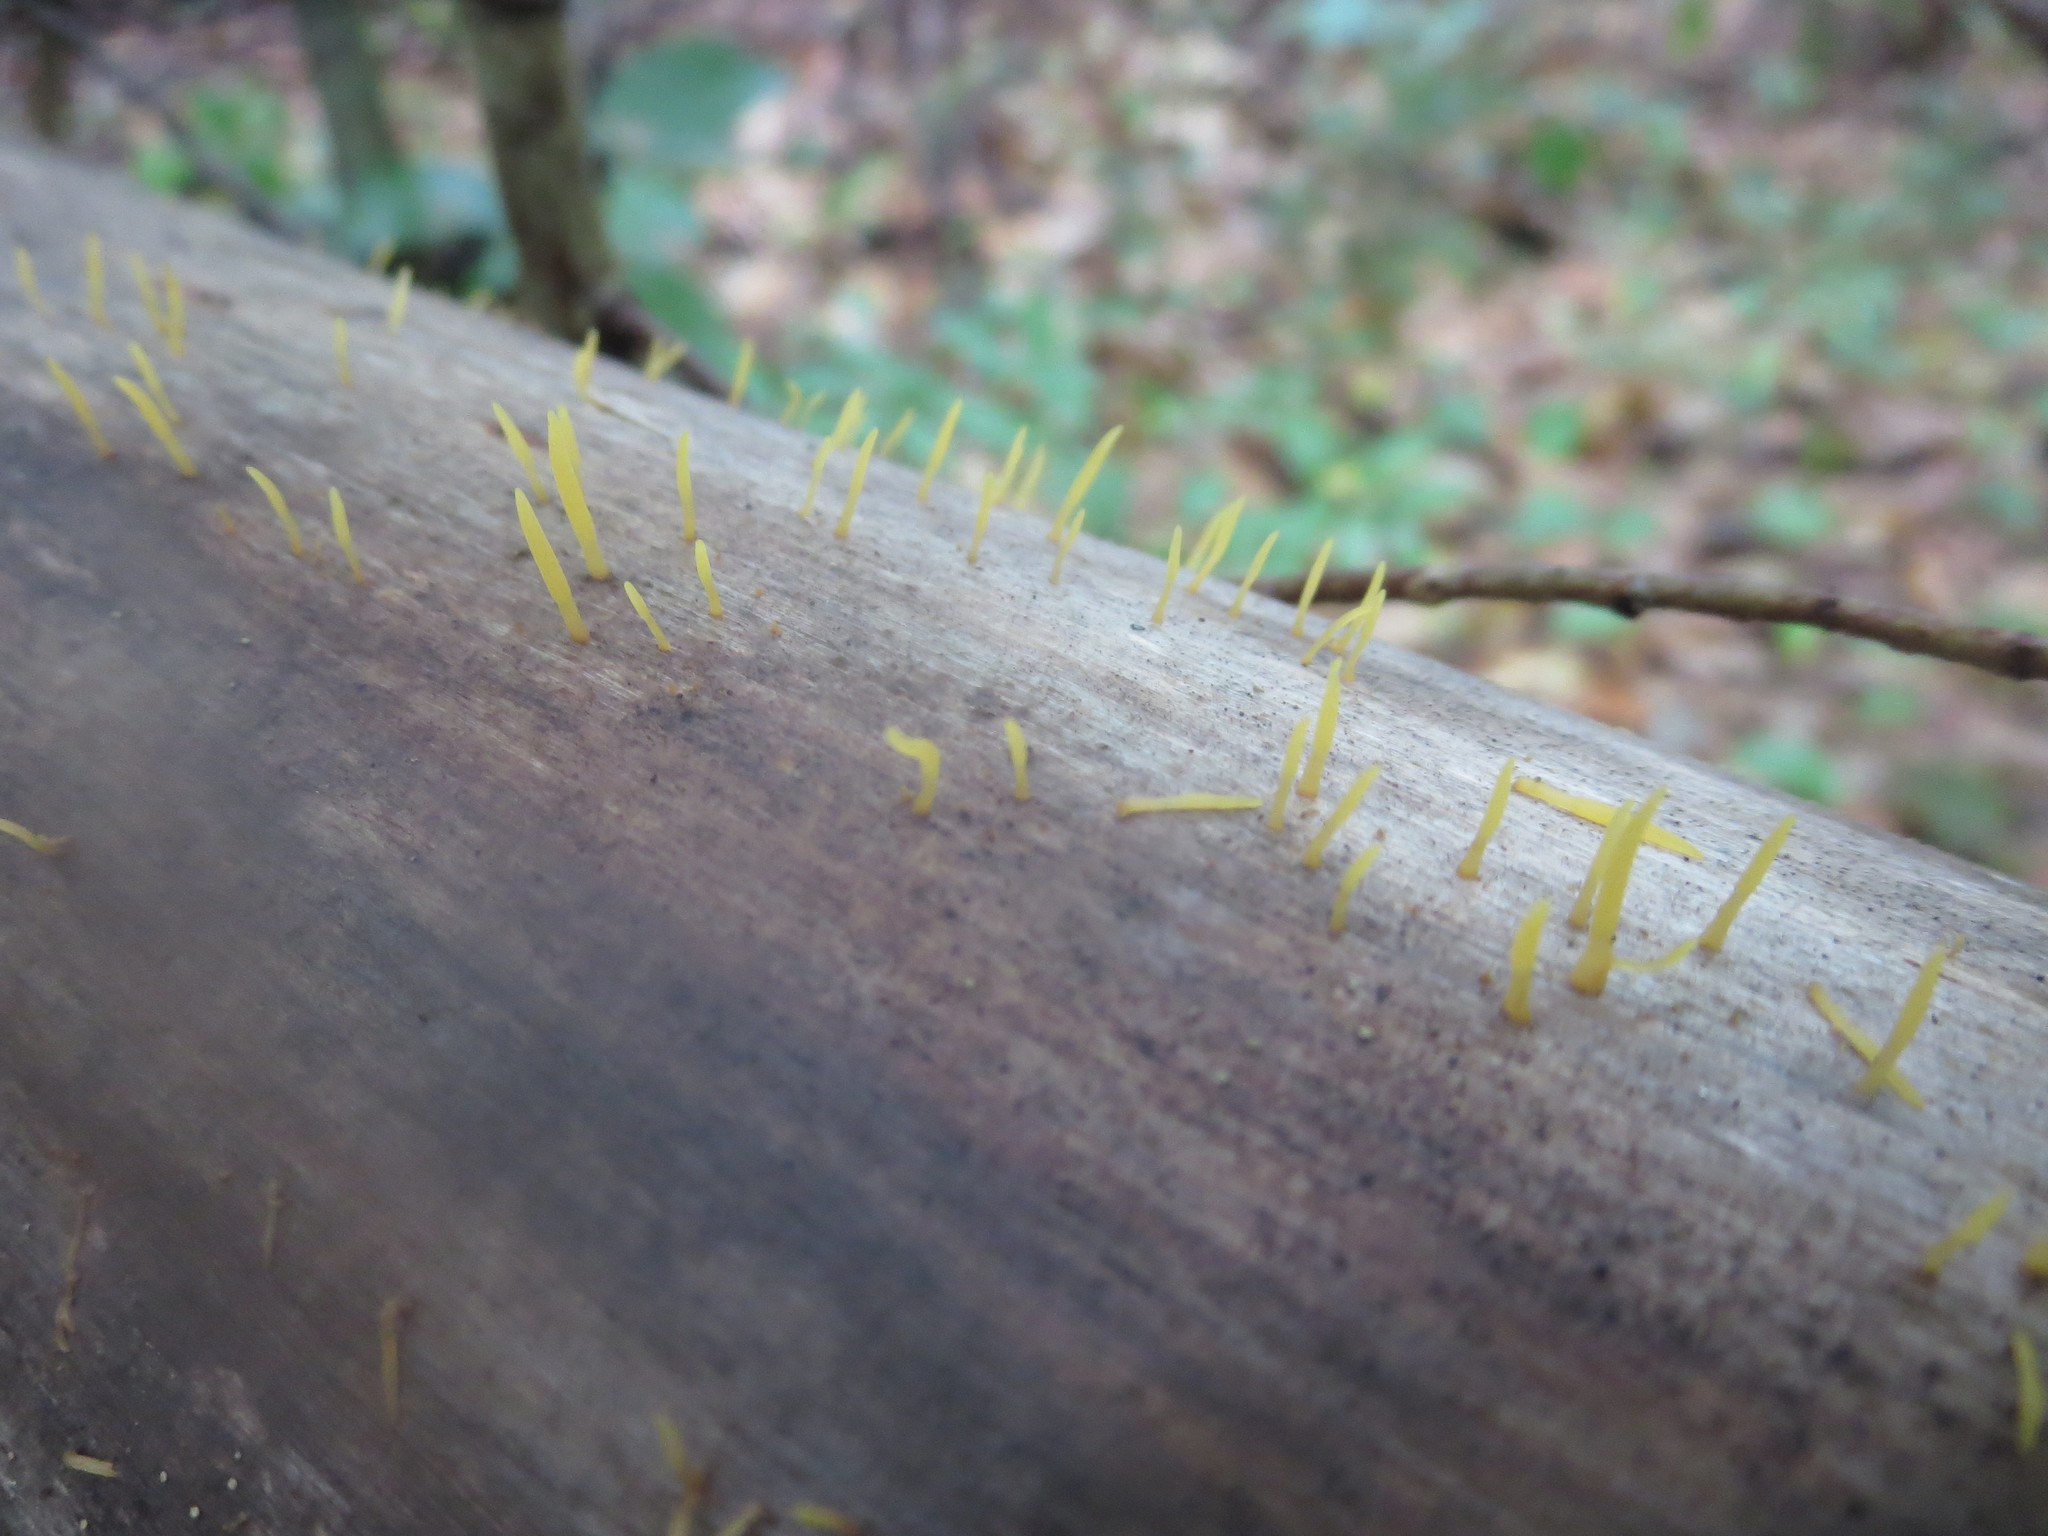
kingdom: Fungi
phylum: Basidiomycota
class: Dacrymycetes
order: Dacrymycetales
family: Dacrymycetaceae
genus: Calocera
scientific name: Calocera cornea
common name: Small stagshorn
